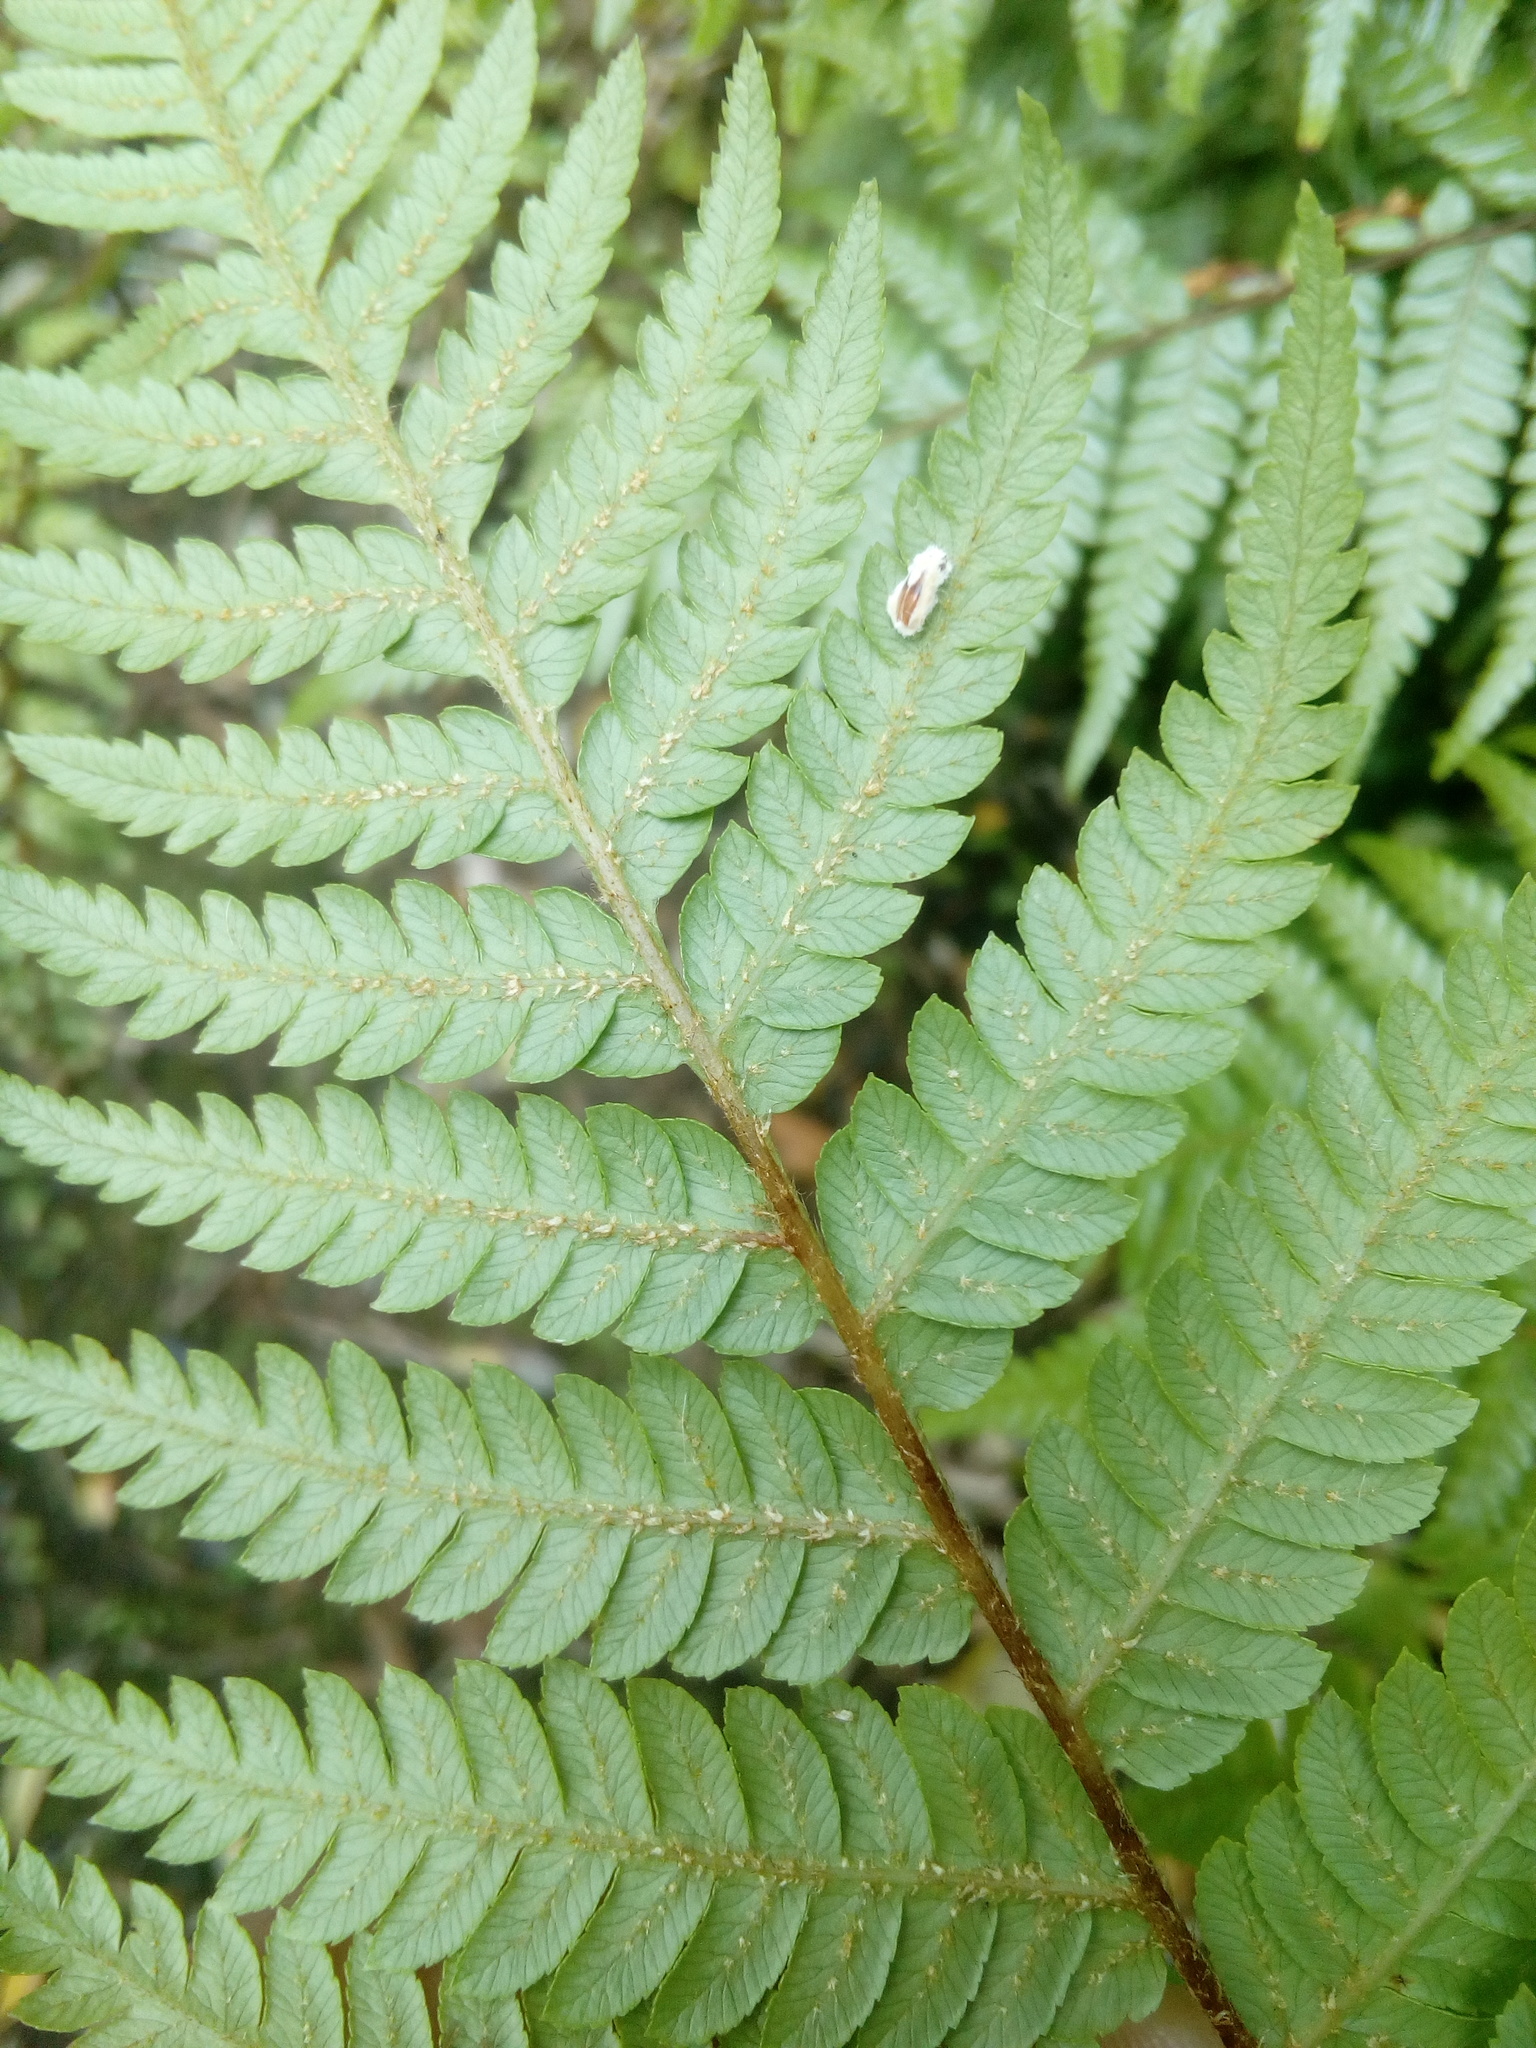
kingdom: Plantae
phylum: Tracheophyta
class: Polypodiopsida
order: Cyatheales
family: Cyatheaceae
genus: Sphaeropteris
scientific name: Sphaeropteris medullaris
